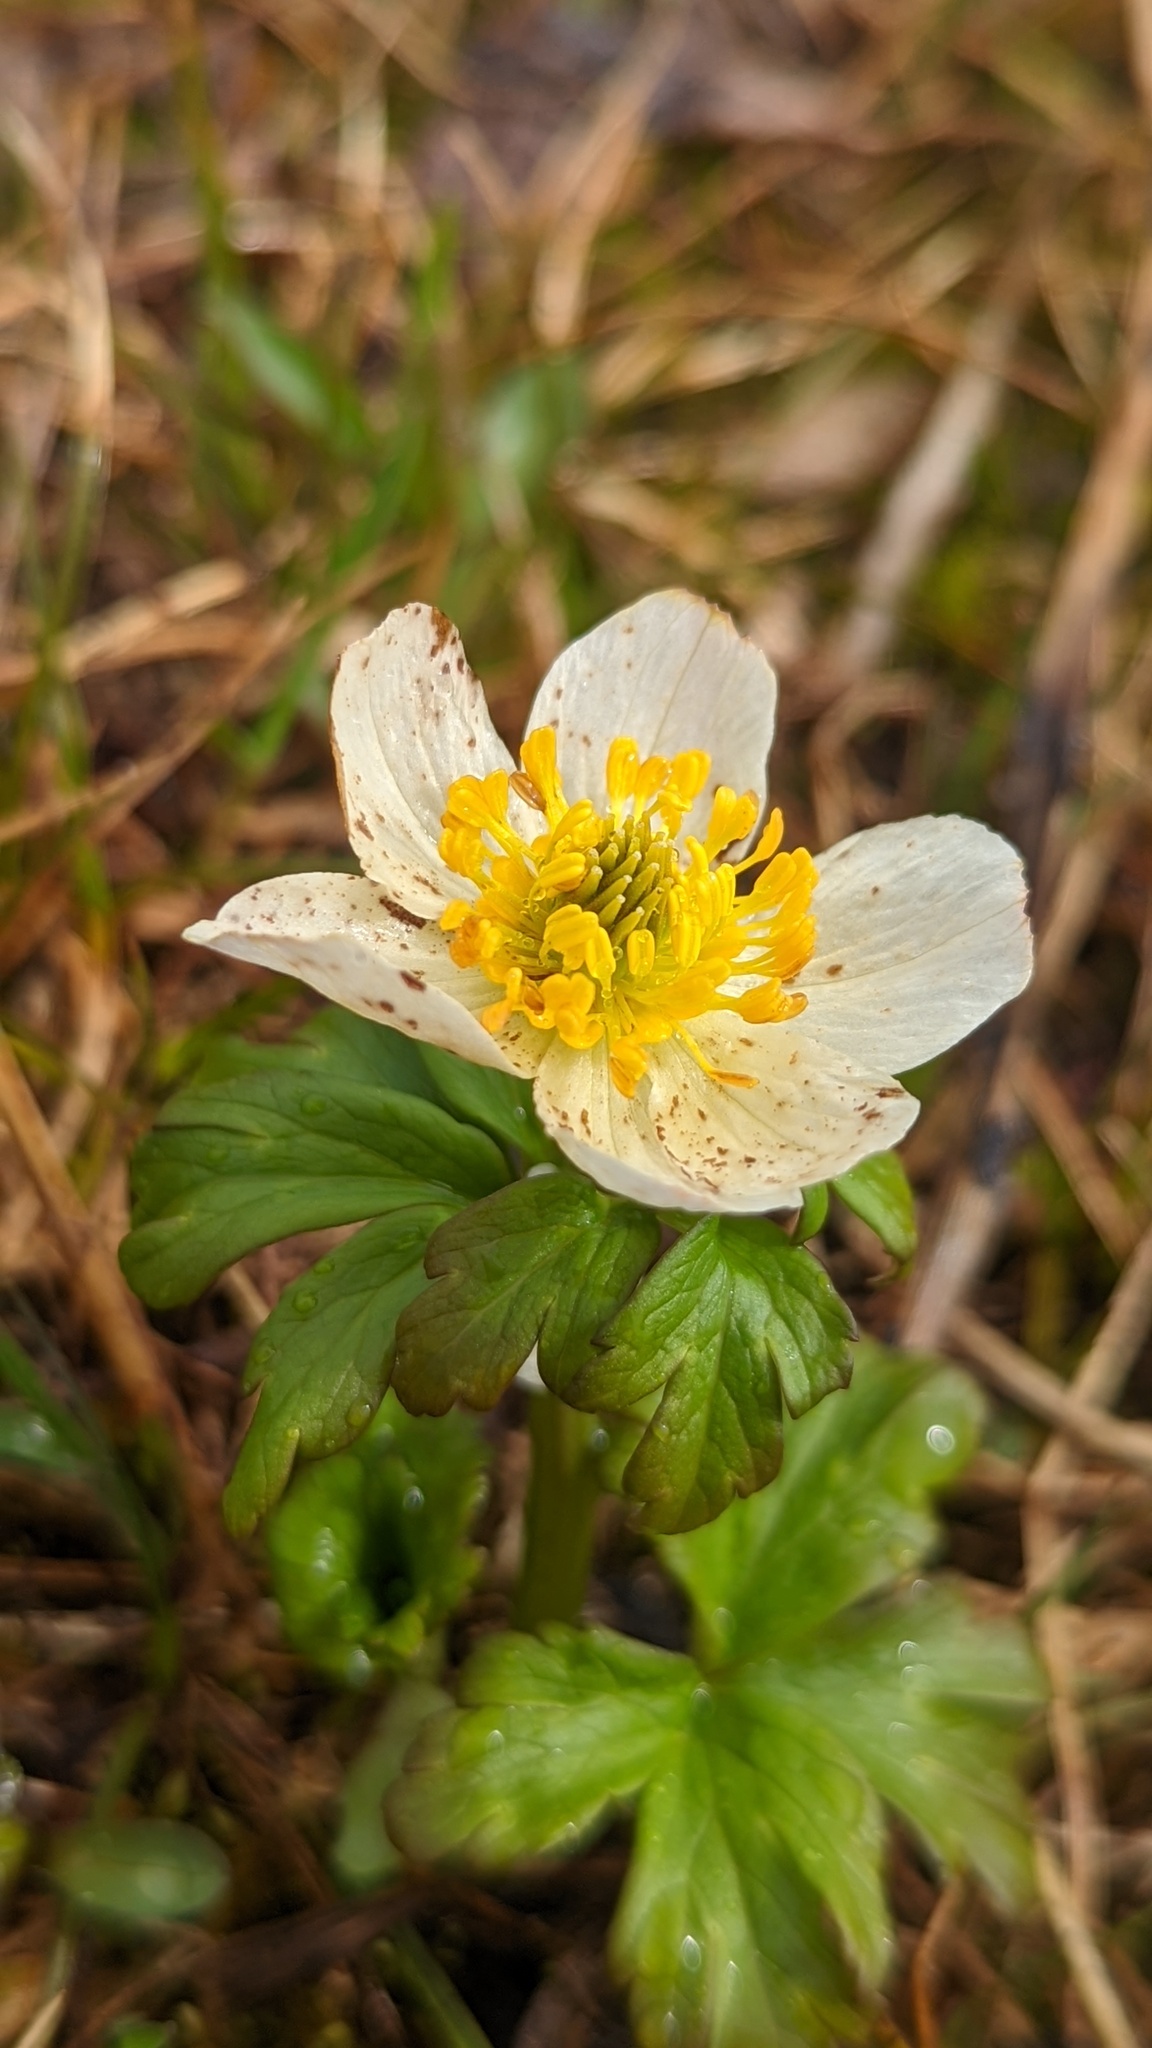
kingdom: Plantae
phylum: Tracheophyta
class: Magnoliopsida
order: Ranunculales
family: Ranunculaceae
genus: Trollius
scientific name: Trollius laxus
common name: American globeflower
